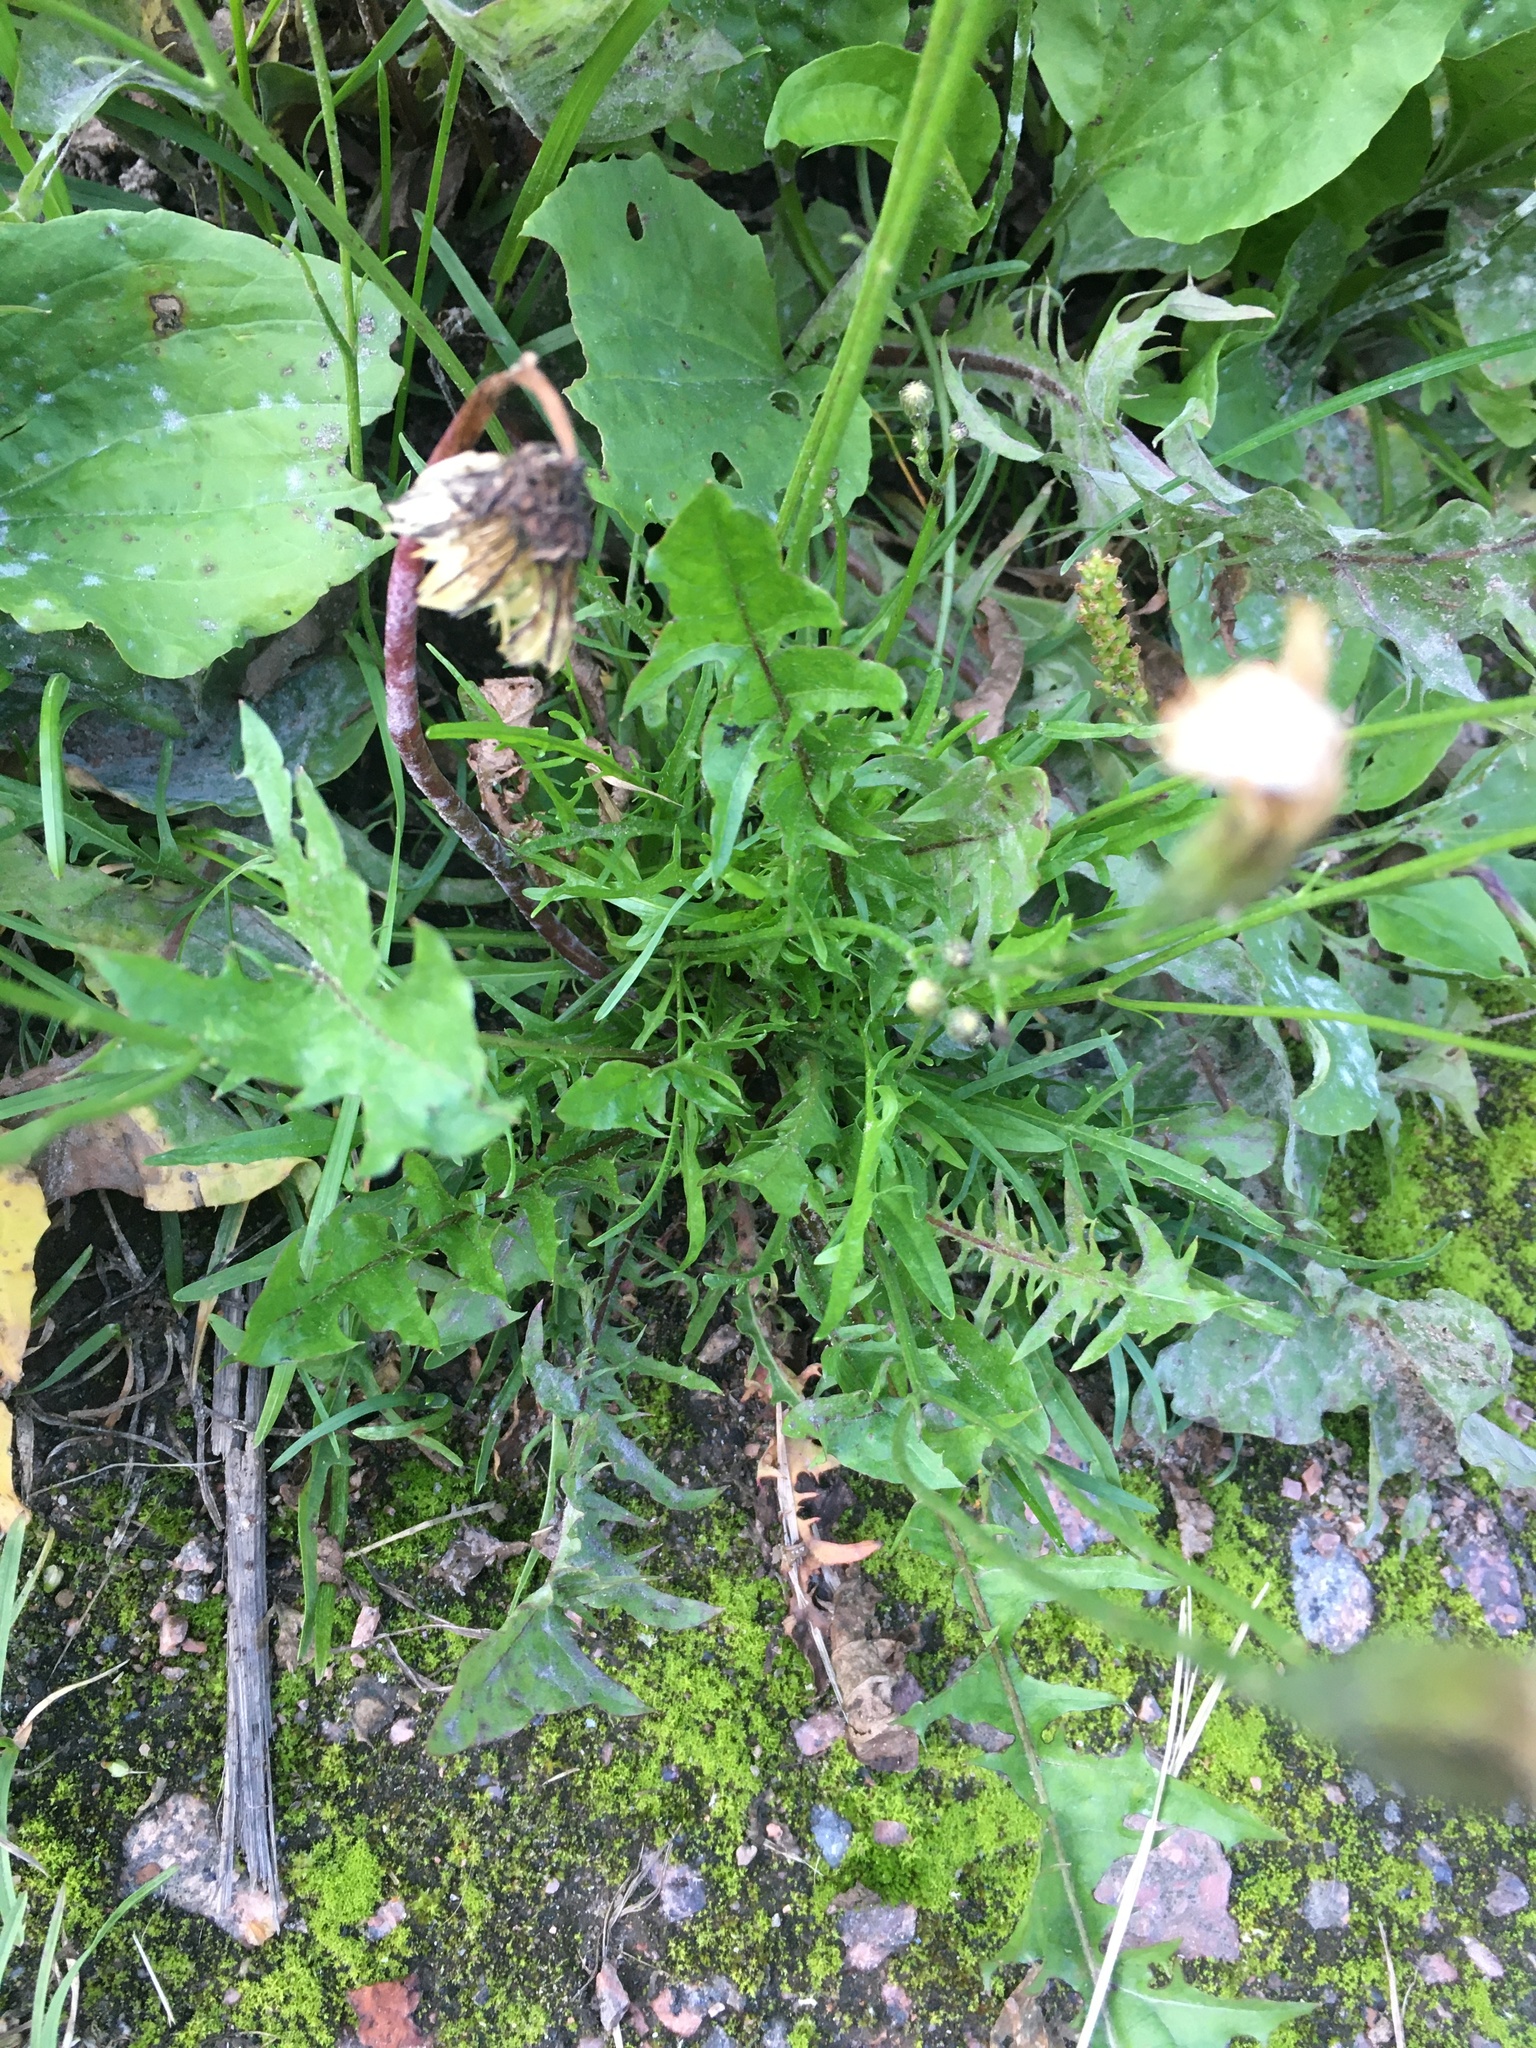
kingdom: Plantae
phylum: Tracheophyta
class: Magnoliopsida
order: Asterales
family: Asteraceae
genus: Scorzoneroides
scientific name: Scorzoneroides autumnalis
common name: Autumn hawkbit
